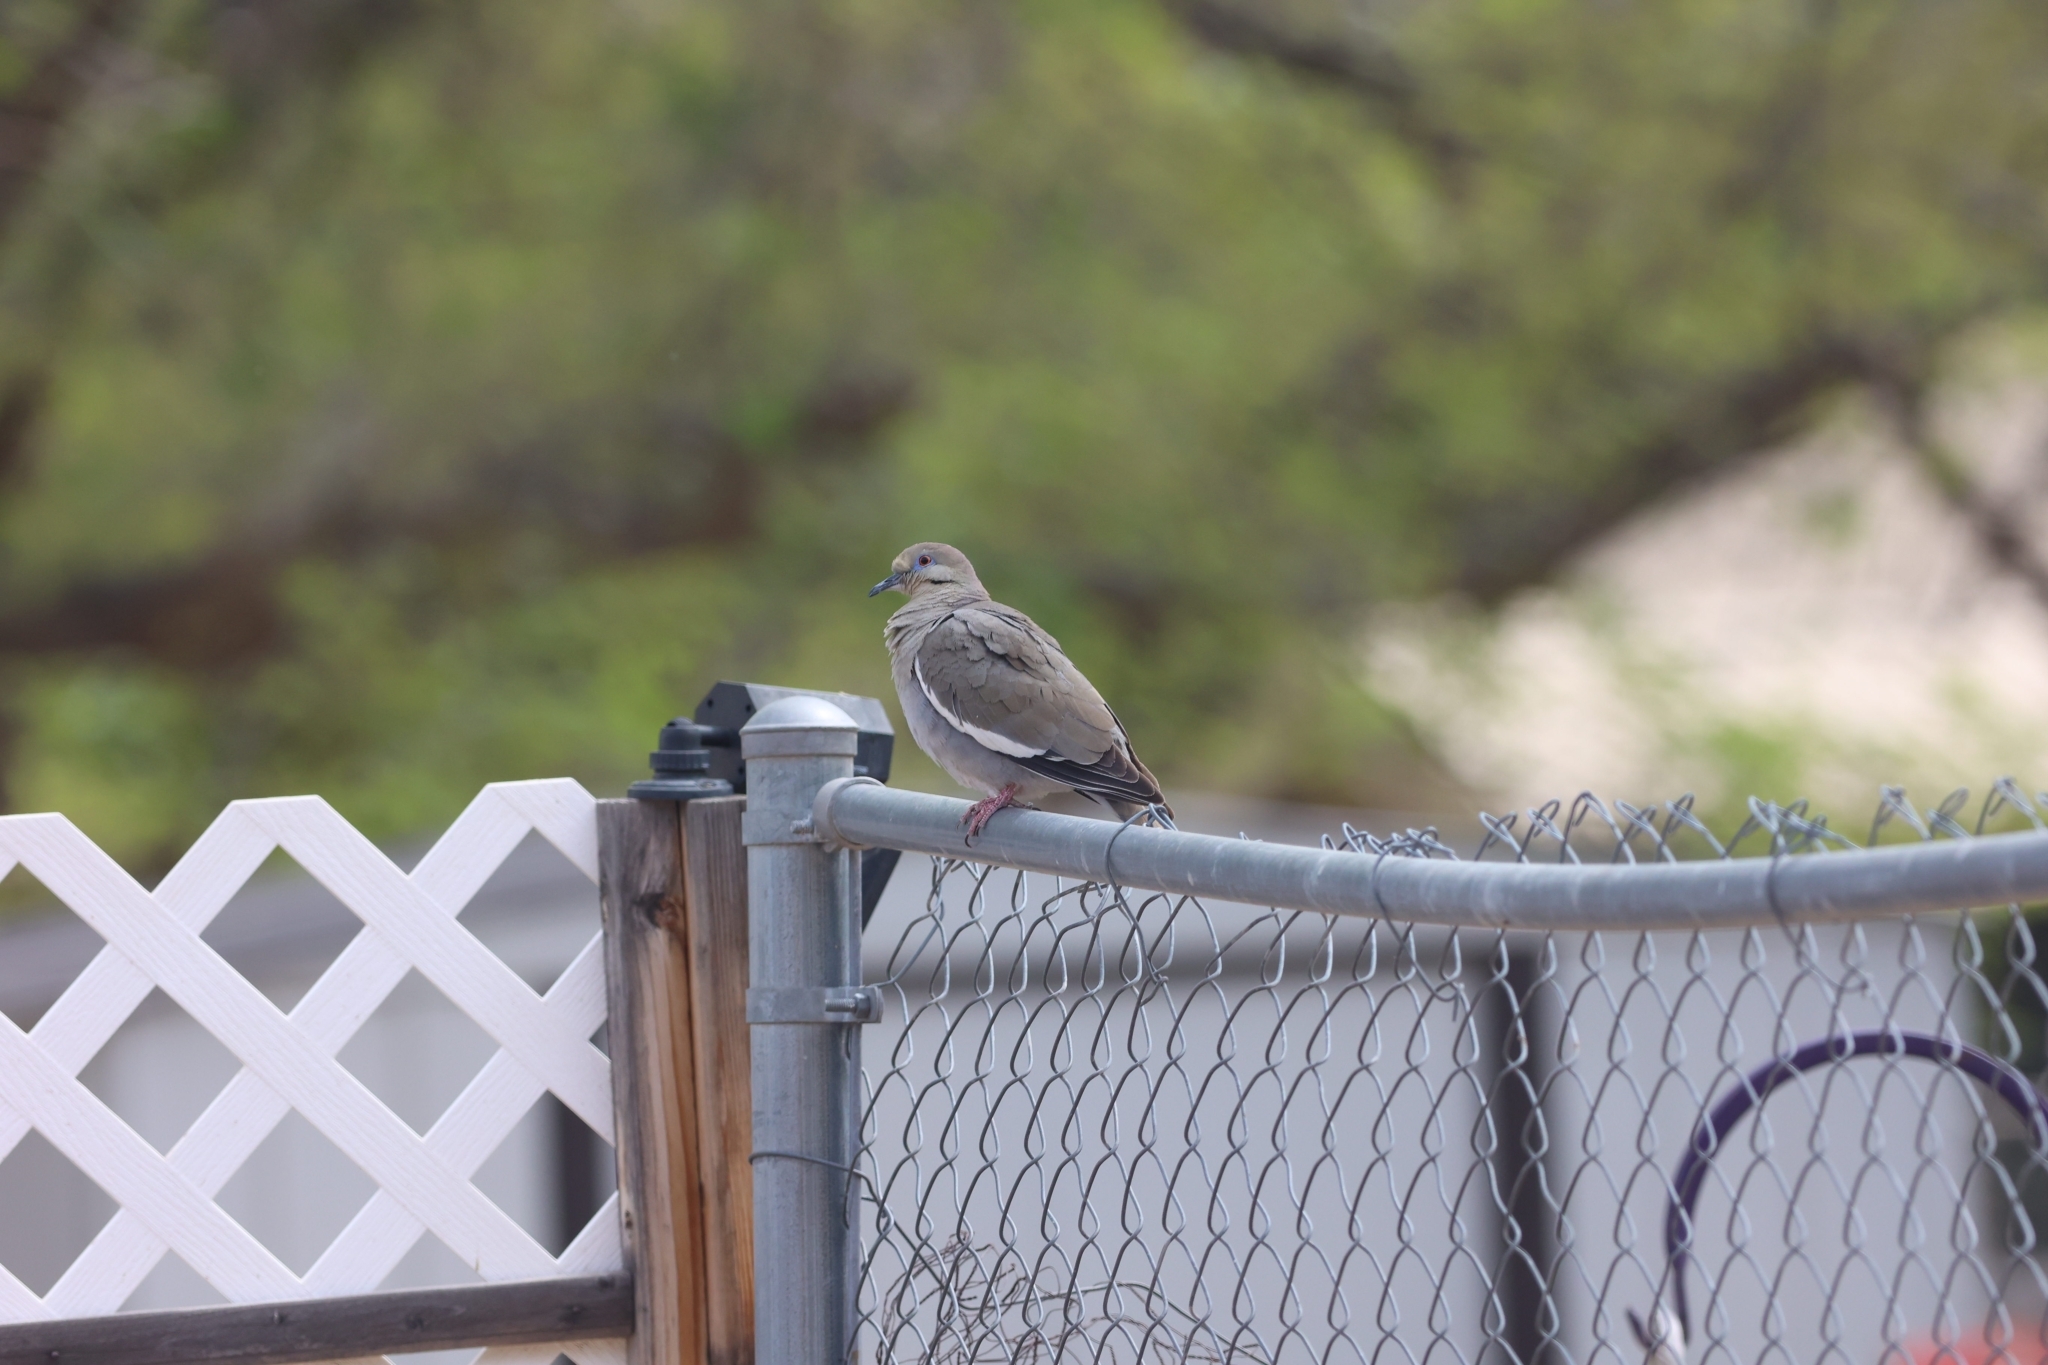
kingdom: Animalia
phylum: Chordata
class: Aves
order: Columbiformes
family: Columbidae
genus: Zenaida
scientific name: Zenaida asiatica
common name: White-winged dove
